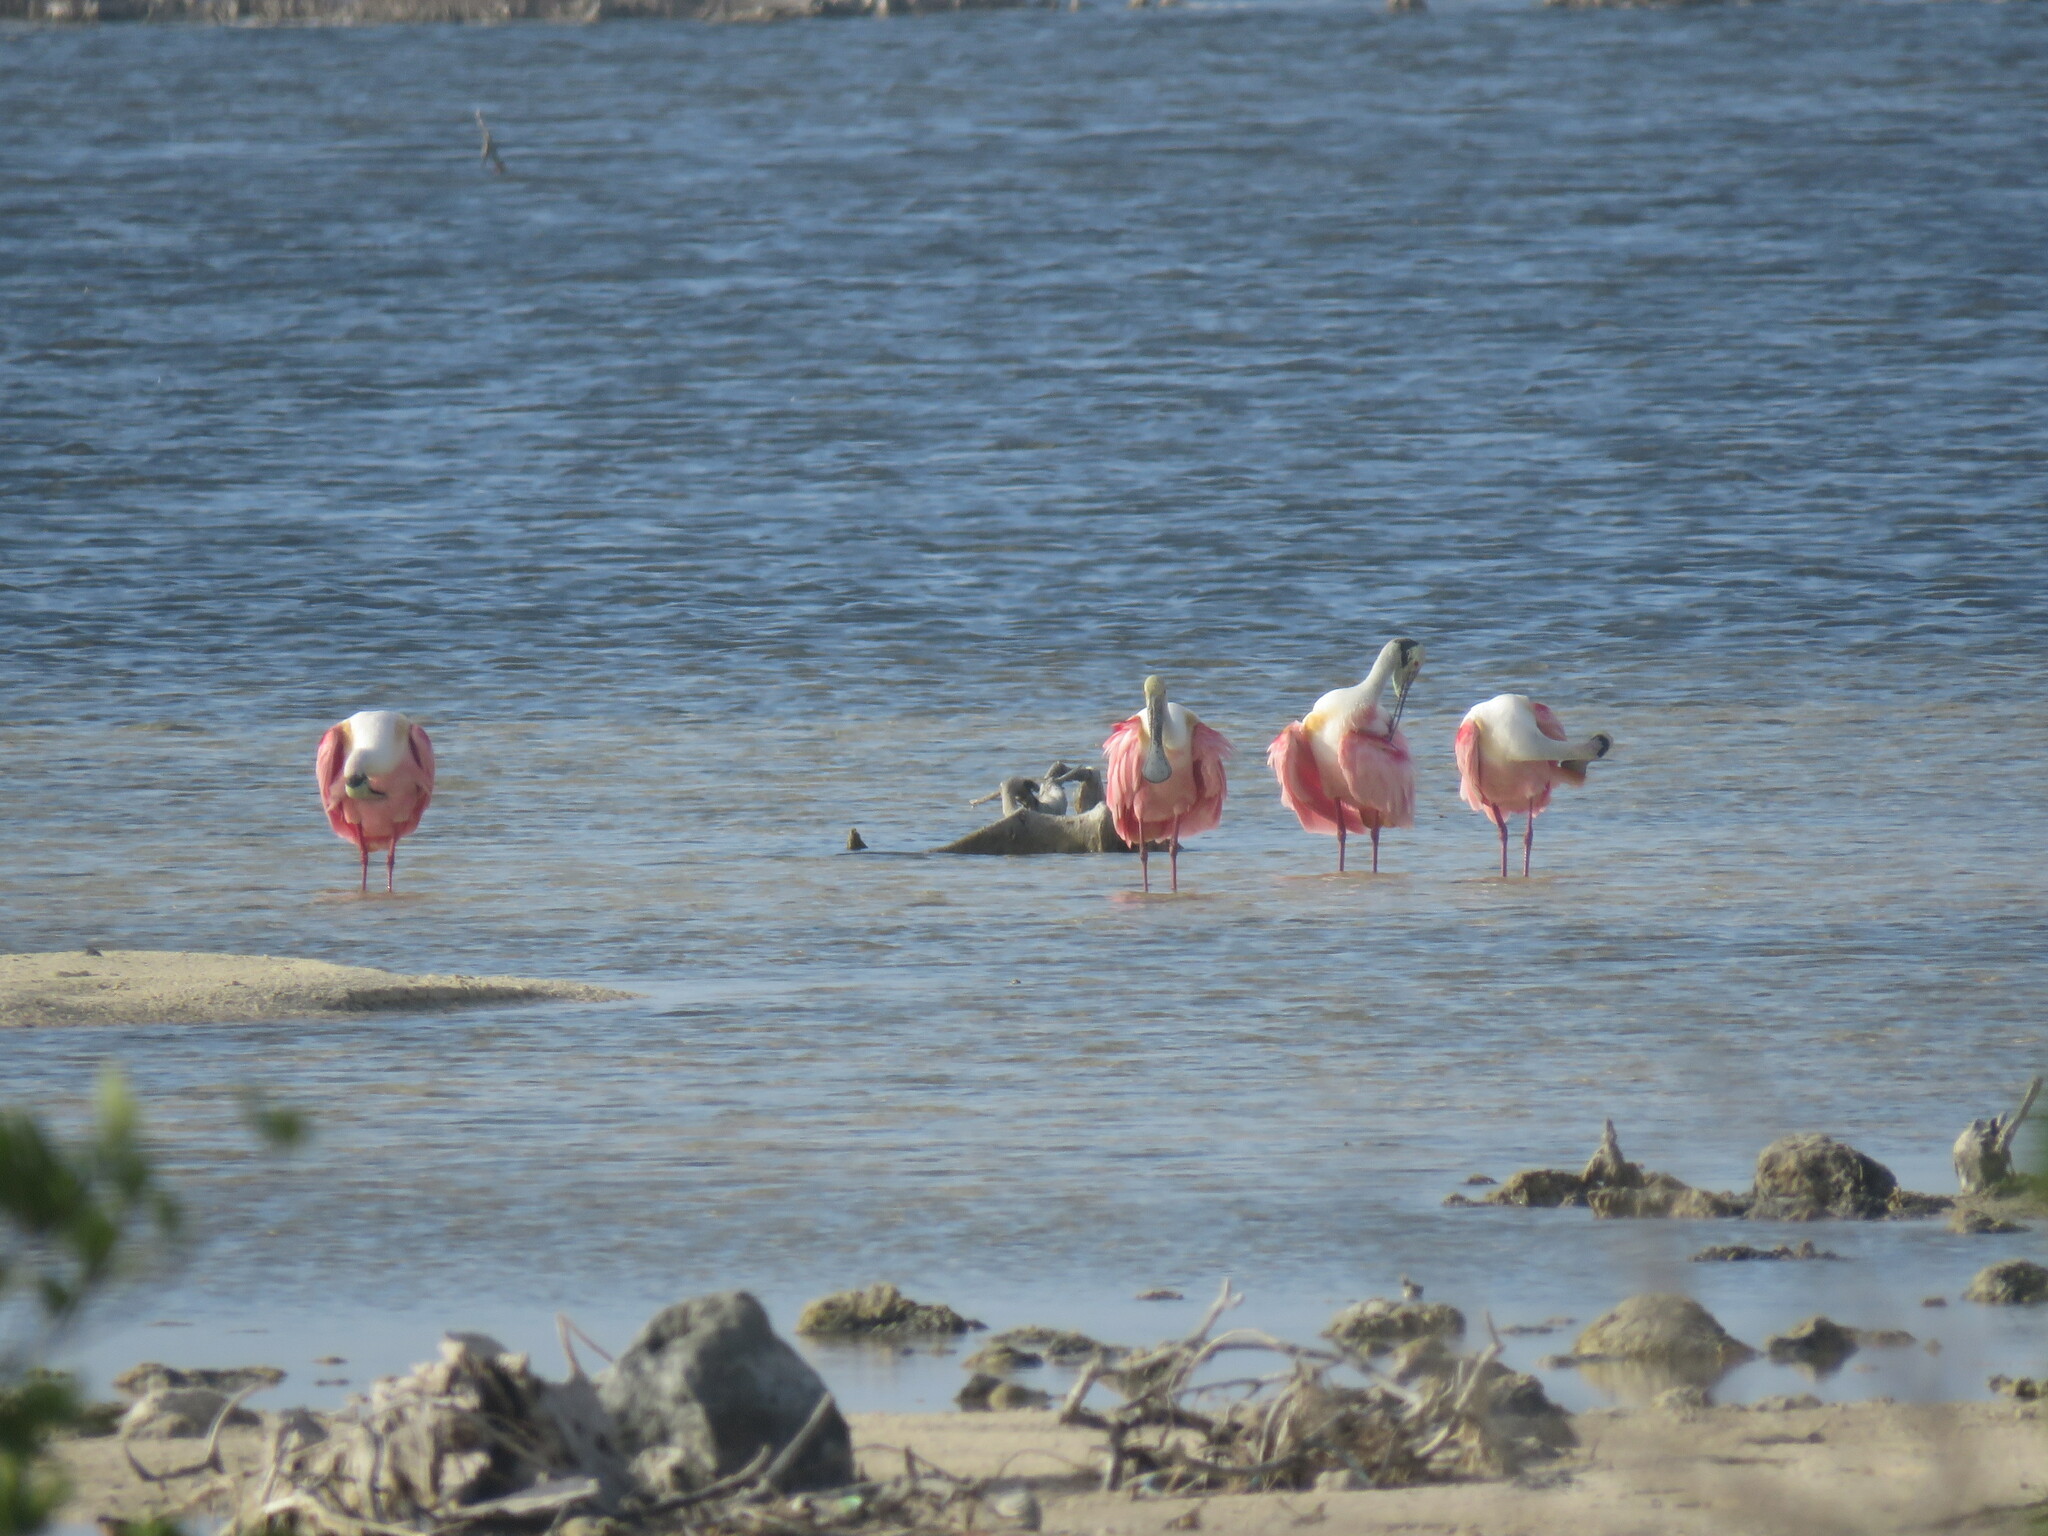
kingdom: Animalia
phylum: Chordata
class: Aves
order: Pelecaniformes
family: Threskiornithidae
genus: Platalea
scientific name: Platalea ajaja
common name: Roseate spoonbill
